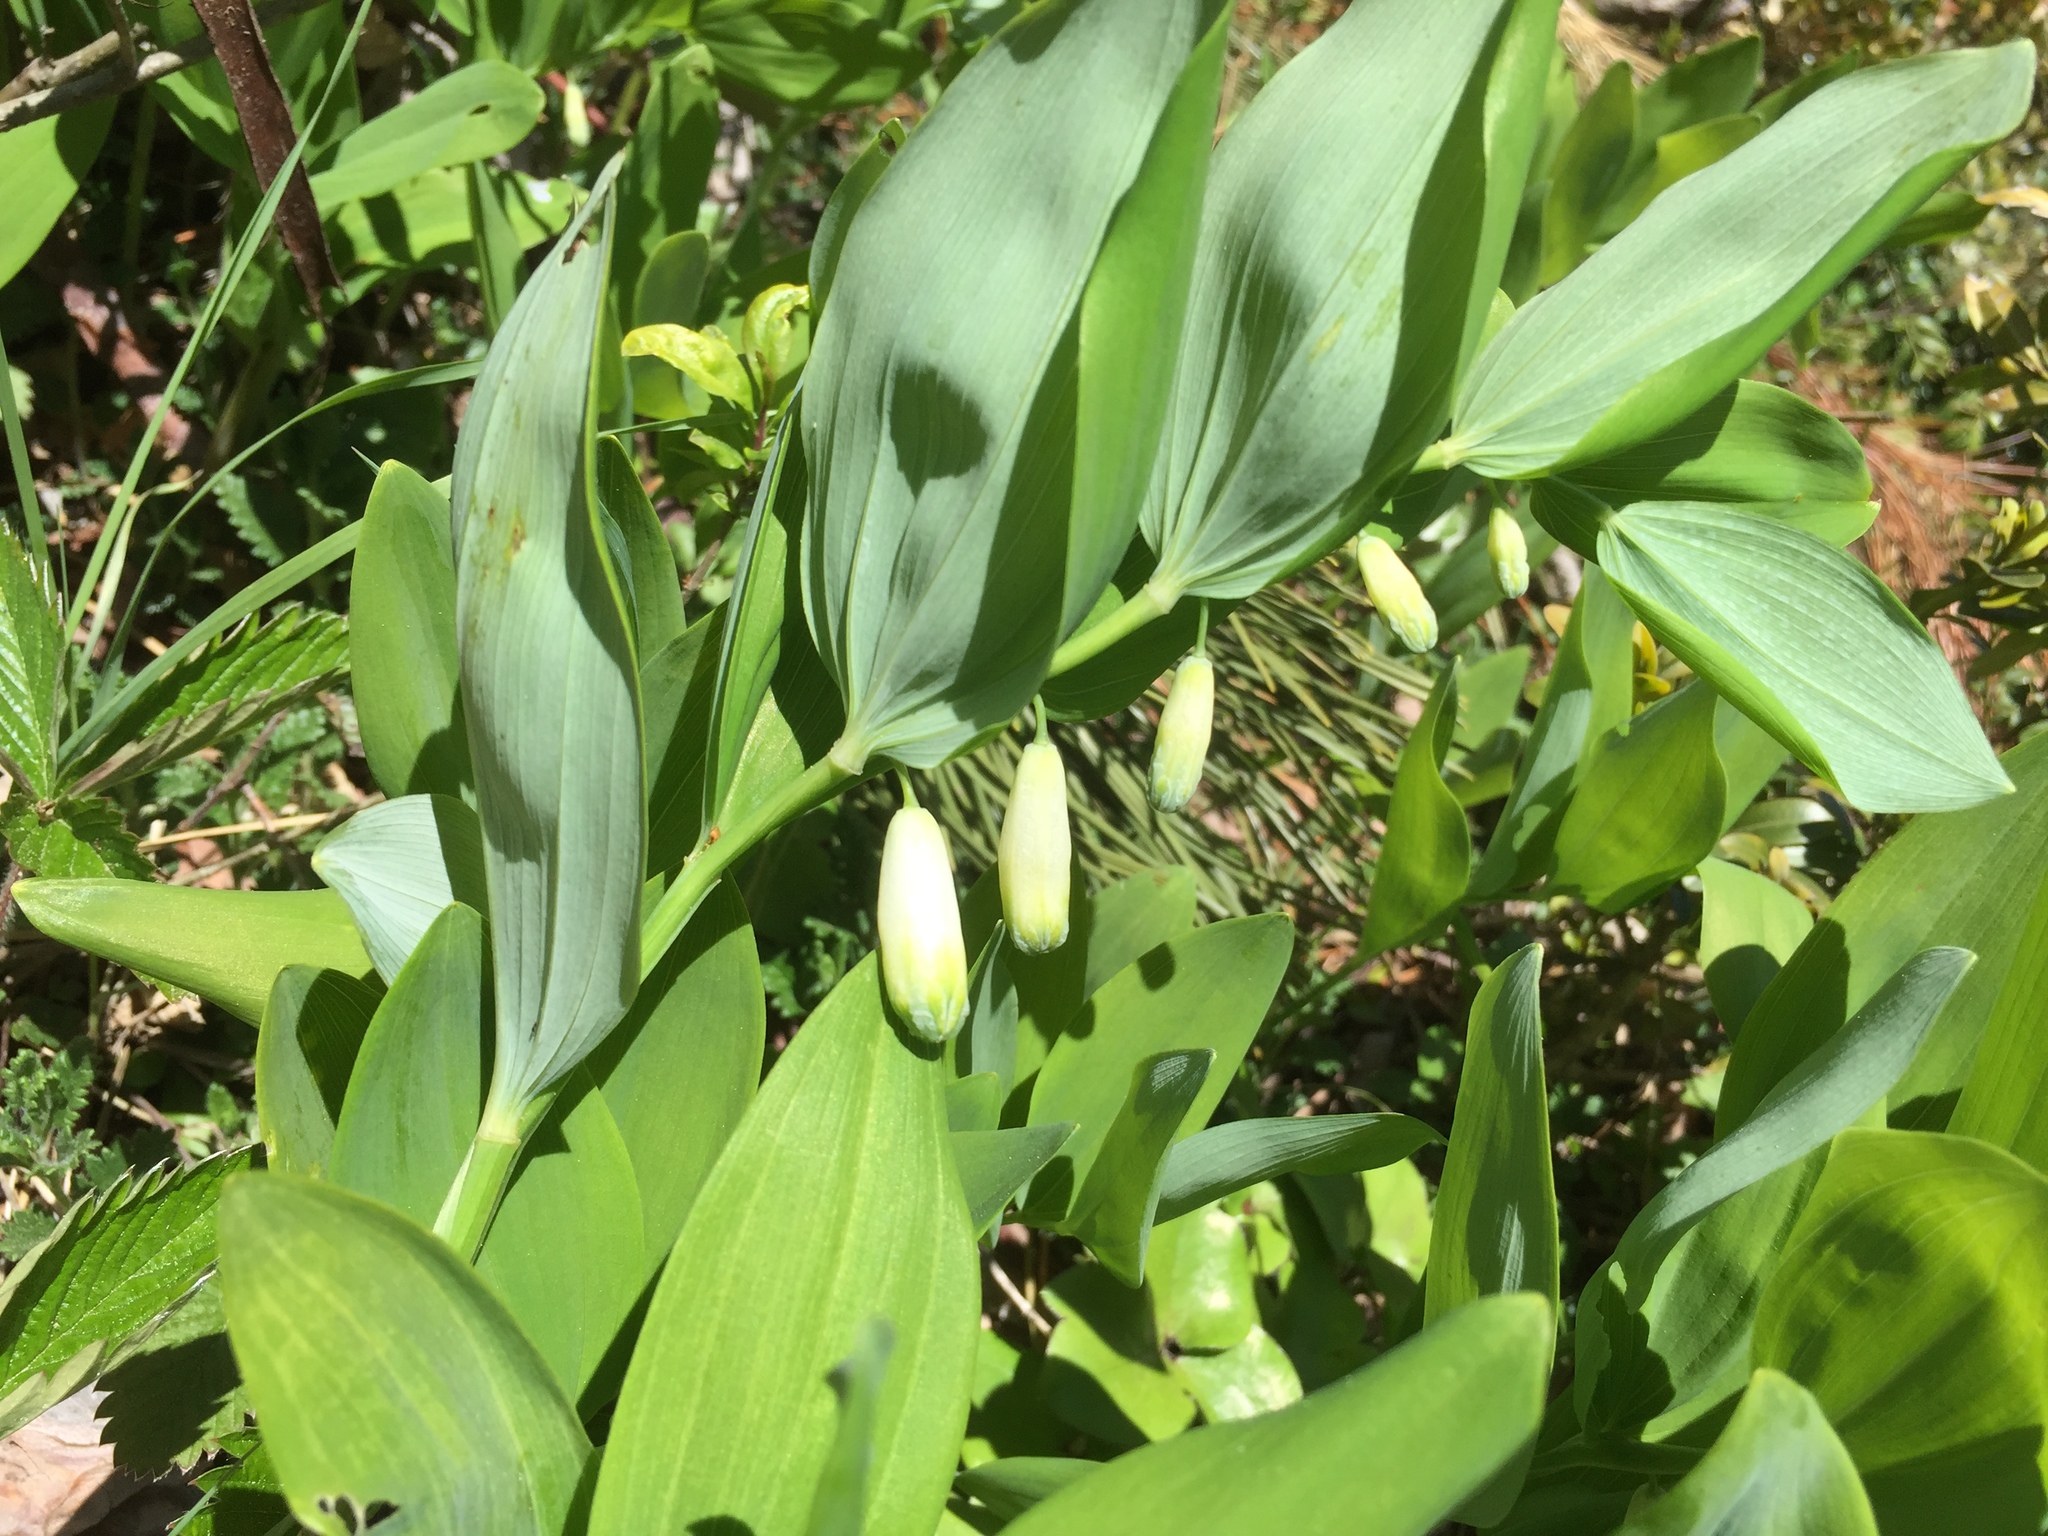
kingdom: Plantae
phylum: Tracheophyta
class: Liliopsida
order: Asparagales
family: Asparagaceae
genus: Polygonatum
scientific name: Polygonatum odoratum
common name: Angular solomon's-seal
